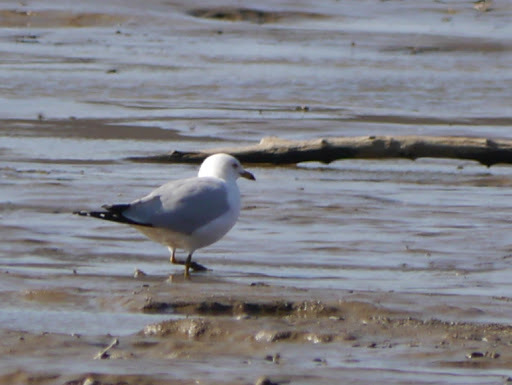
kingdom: Animalia
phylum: Chordata
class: Aves
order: Charadriiformes
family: Laridae
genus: Larus
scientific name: Larus delawarensis
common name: Ring-billed gull
